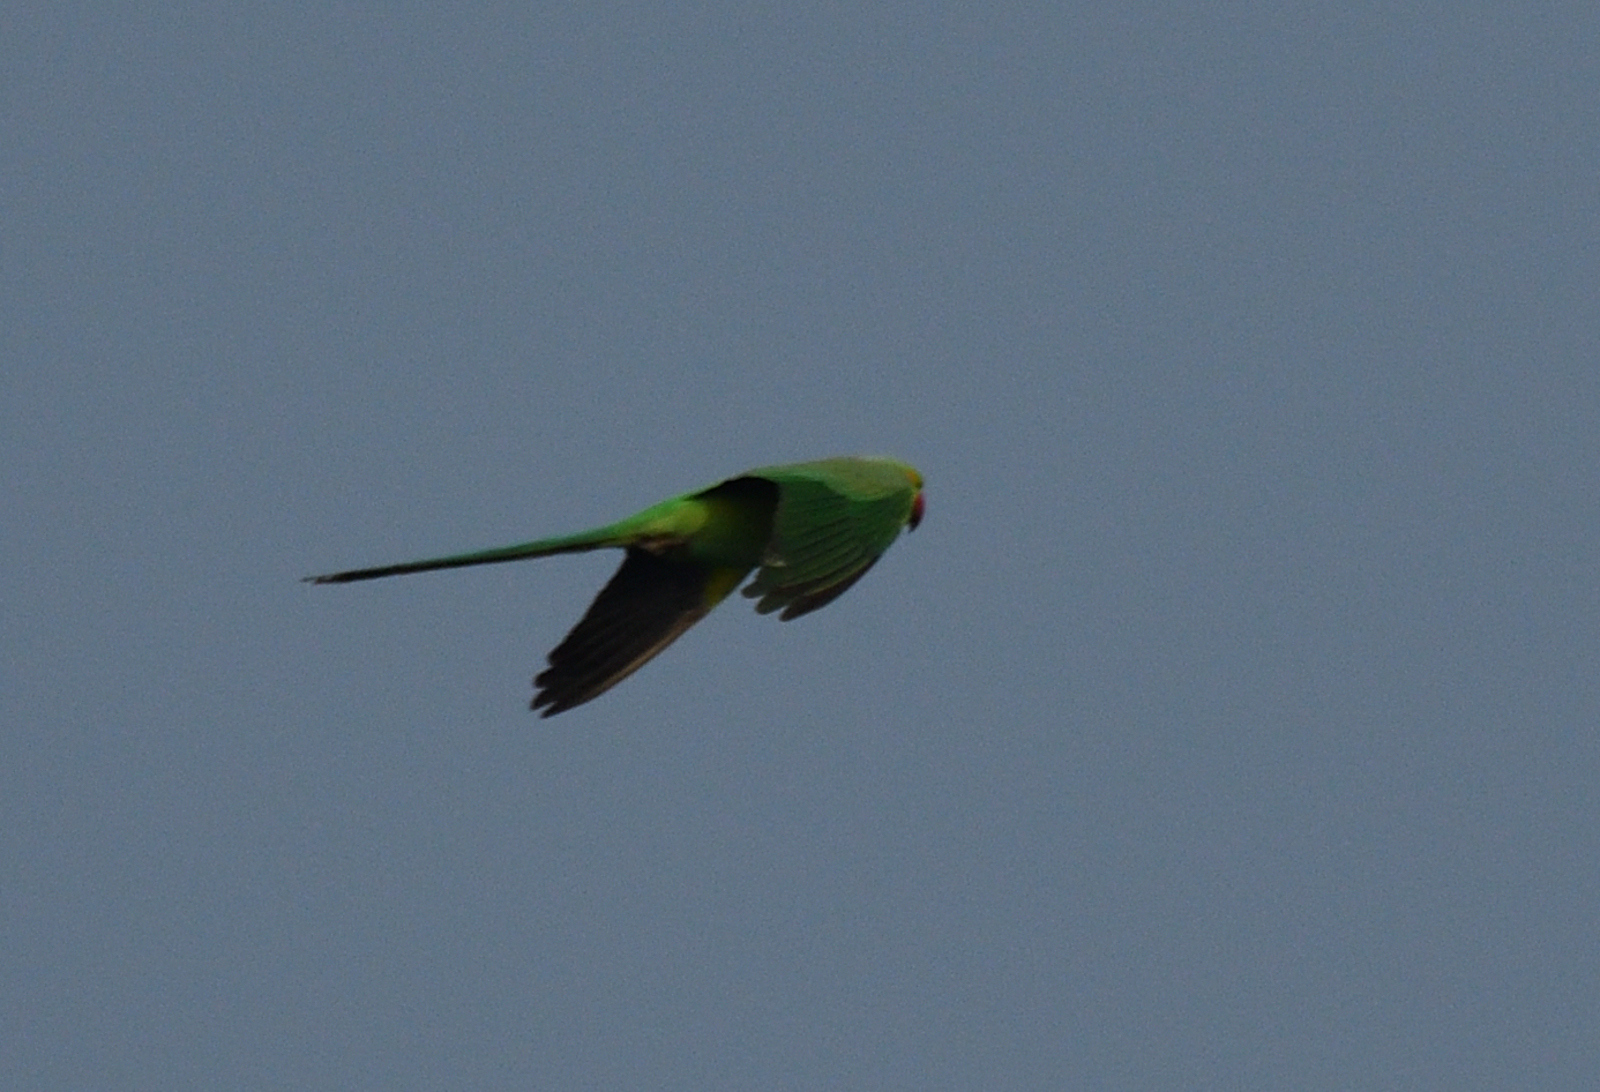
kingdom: Animalia
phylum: Chordata
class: Aves
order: Psittaciformes
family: Psittacidae
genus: Psittacula
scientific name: Psittacula krameri
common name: Rose-ringed parakeet
